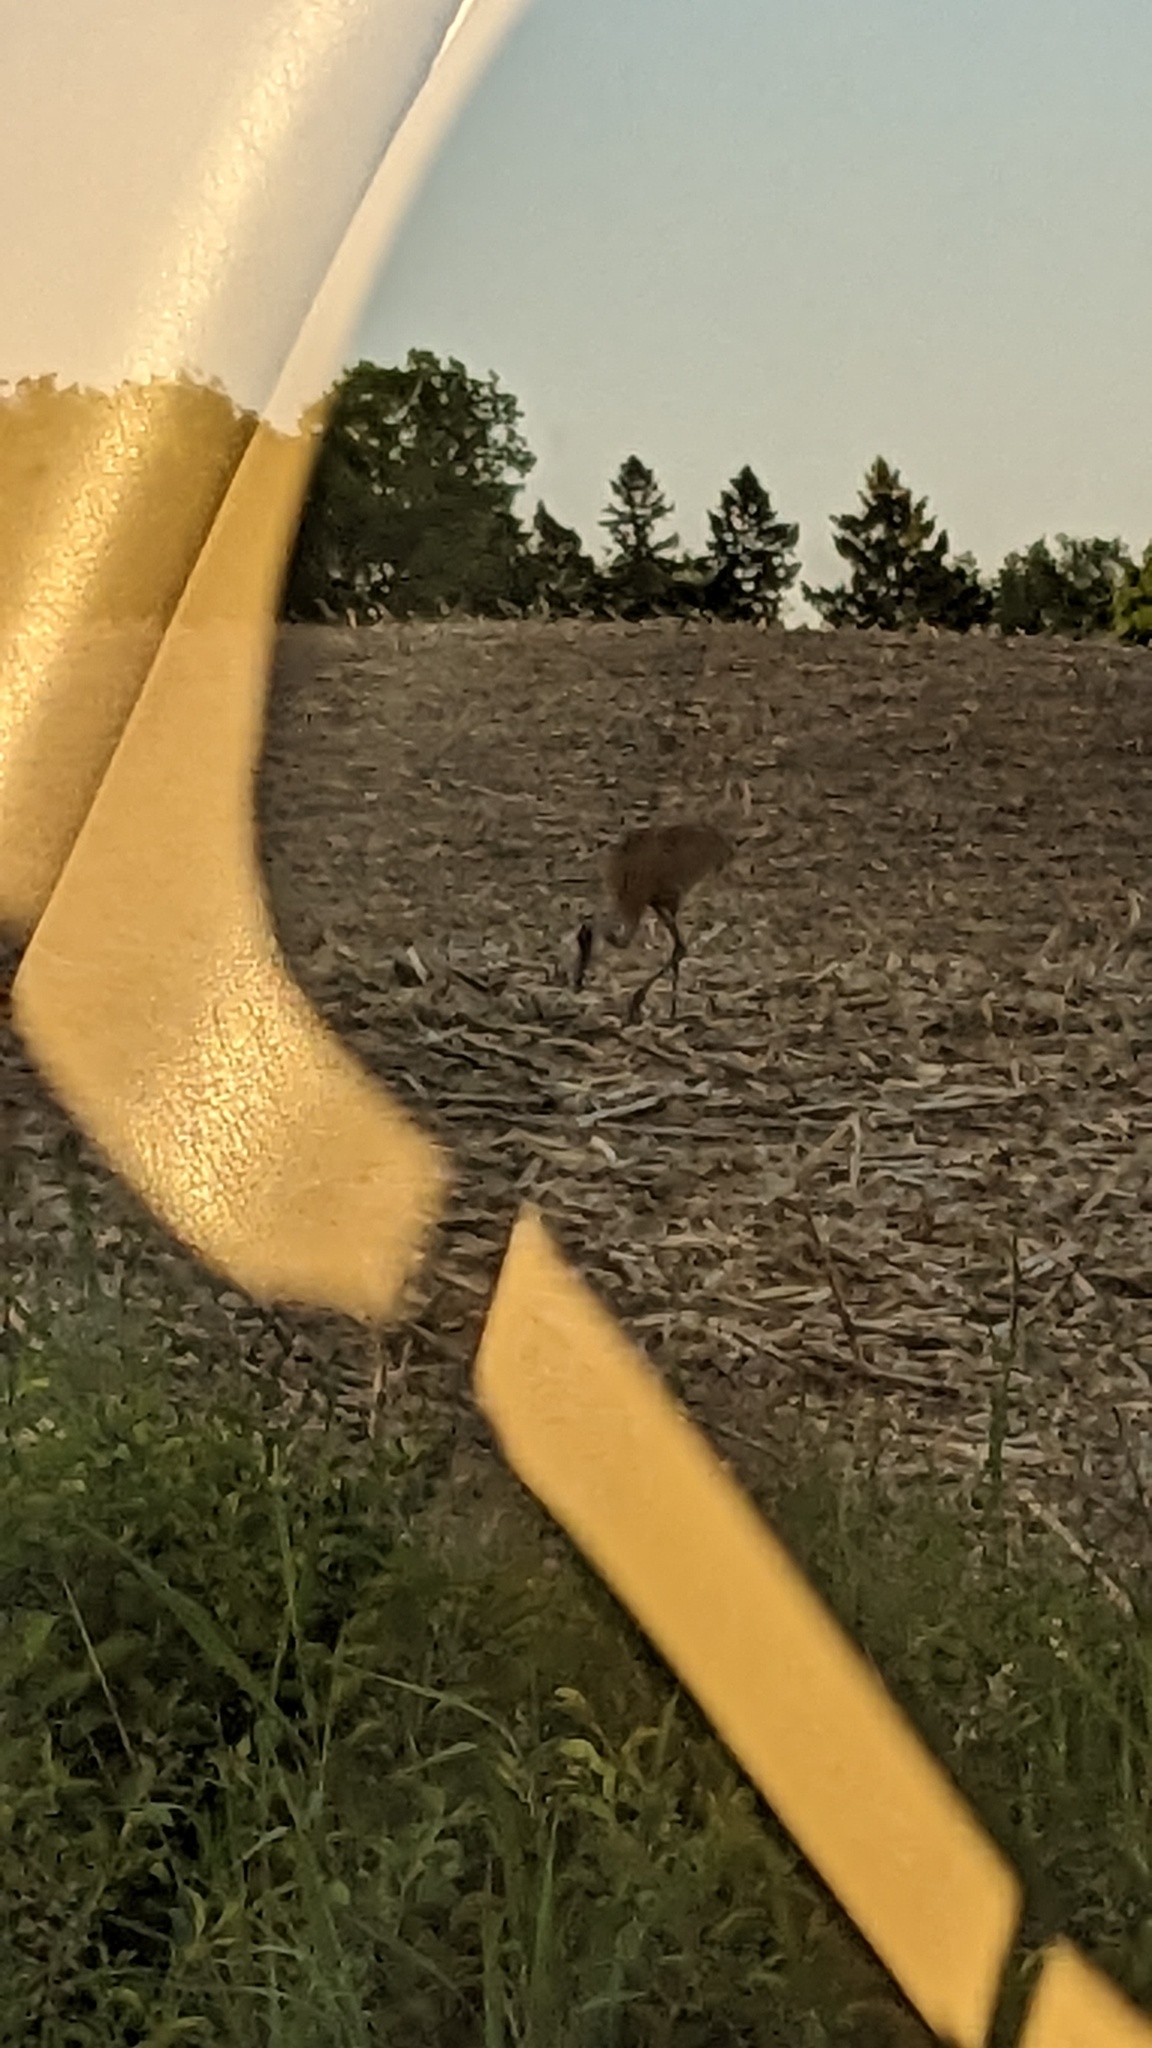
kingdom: Animalia
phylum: Chordata
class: Aves
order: Gruiformes
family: Gruidae
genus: Grus
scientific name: Grus canadensis
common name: Sandhill crane
